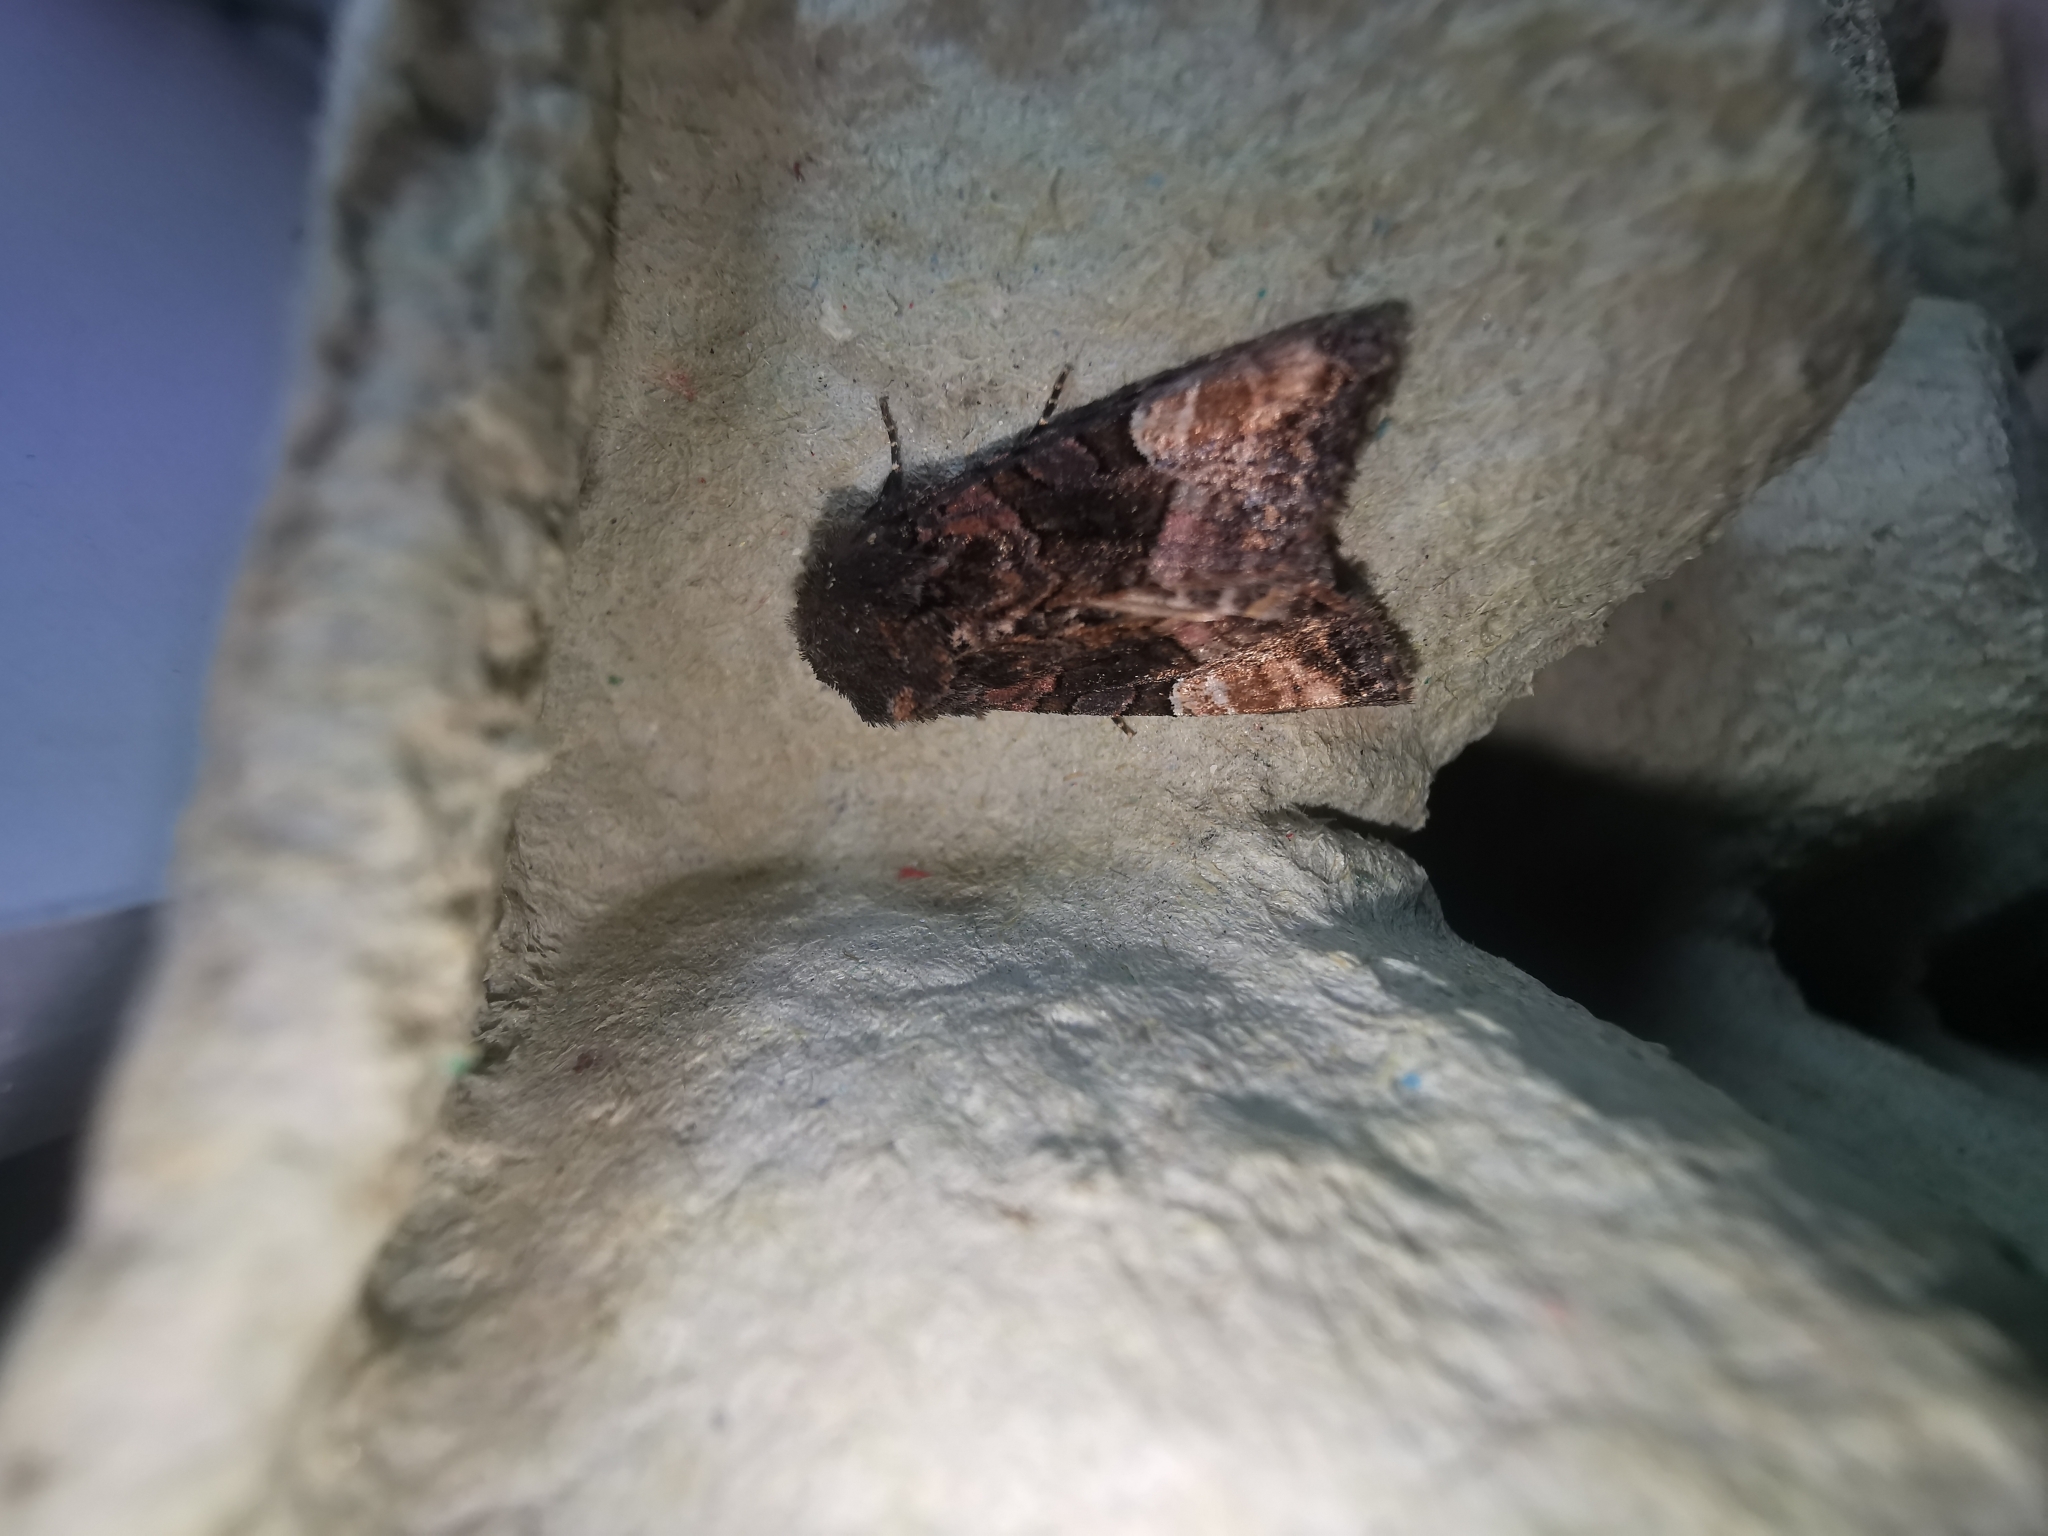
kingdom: Animalia
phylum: Arthropoda
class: Insecta
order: Lepidoptera
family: Noctuidae
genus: Euplexia
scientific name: Euplexia lucipara
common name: Small angle shades
